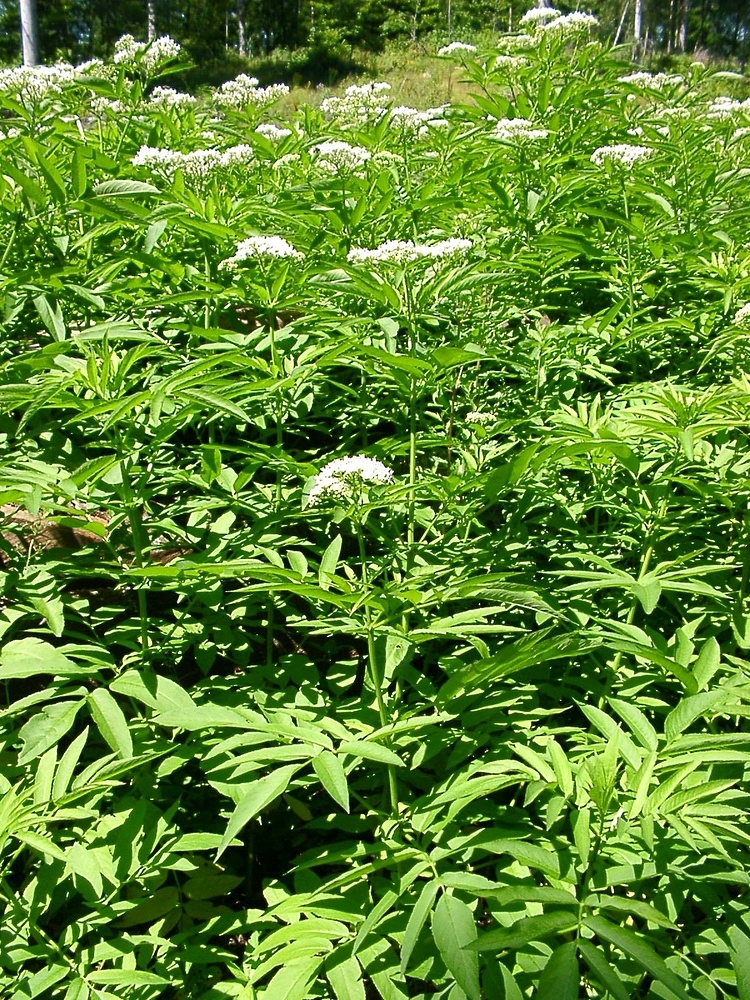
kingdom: Plantae
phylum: Tracheophyta
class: Magnoliopsida
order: Dipsacales
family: Viburnaceae
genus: Sambucus
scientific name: Sambucus ebulus
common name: Dwarf elder
